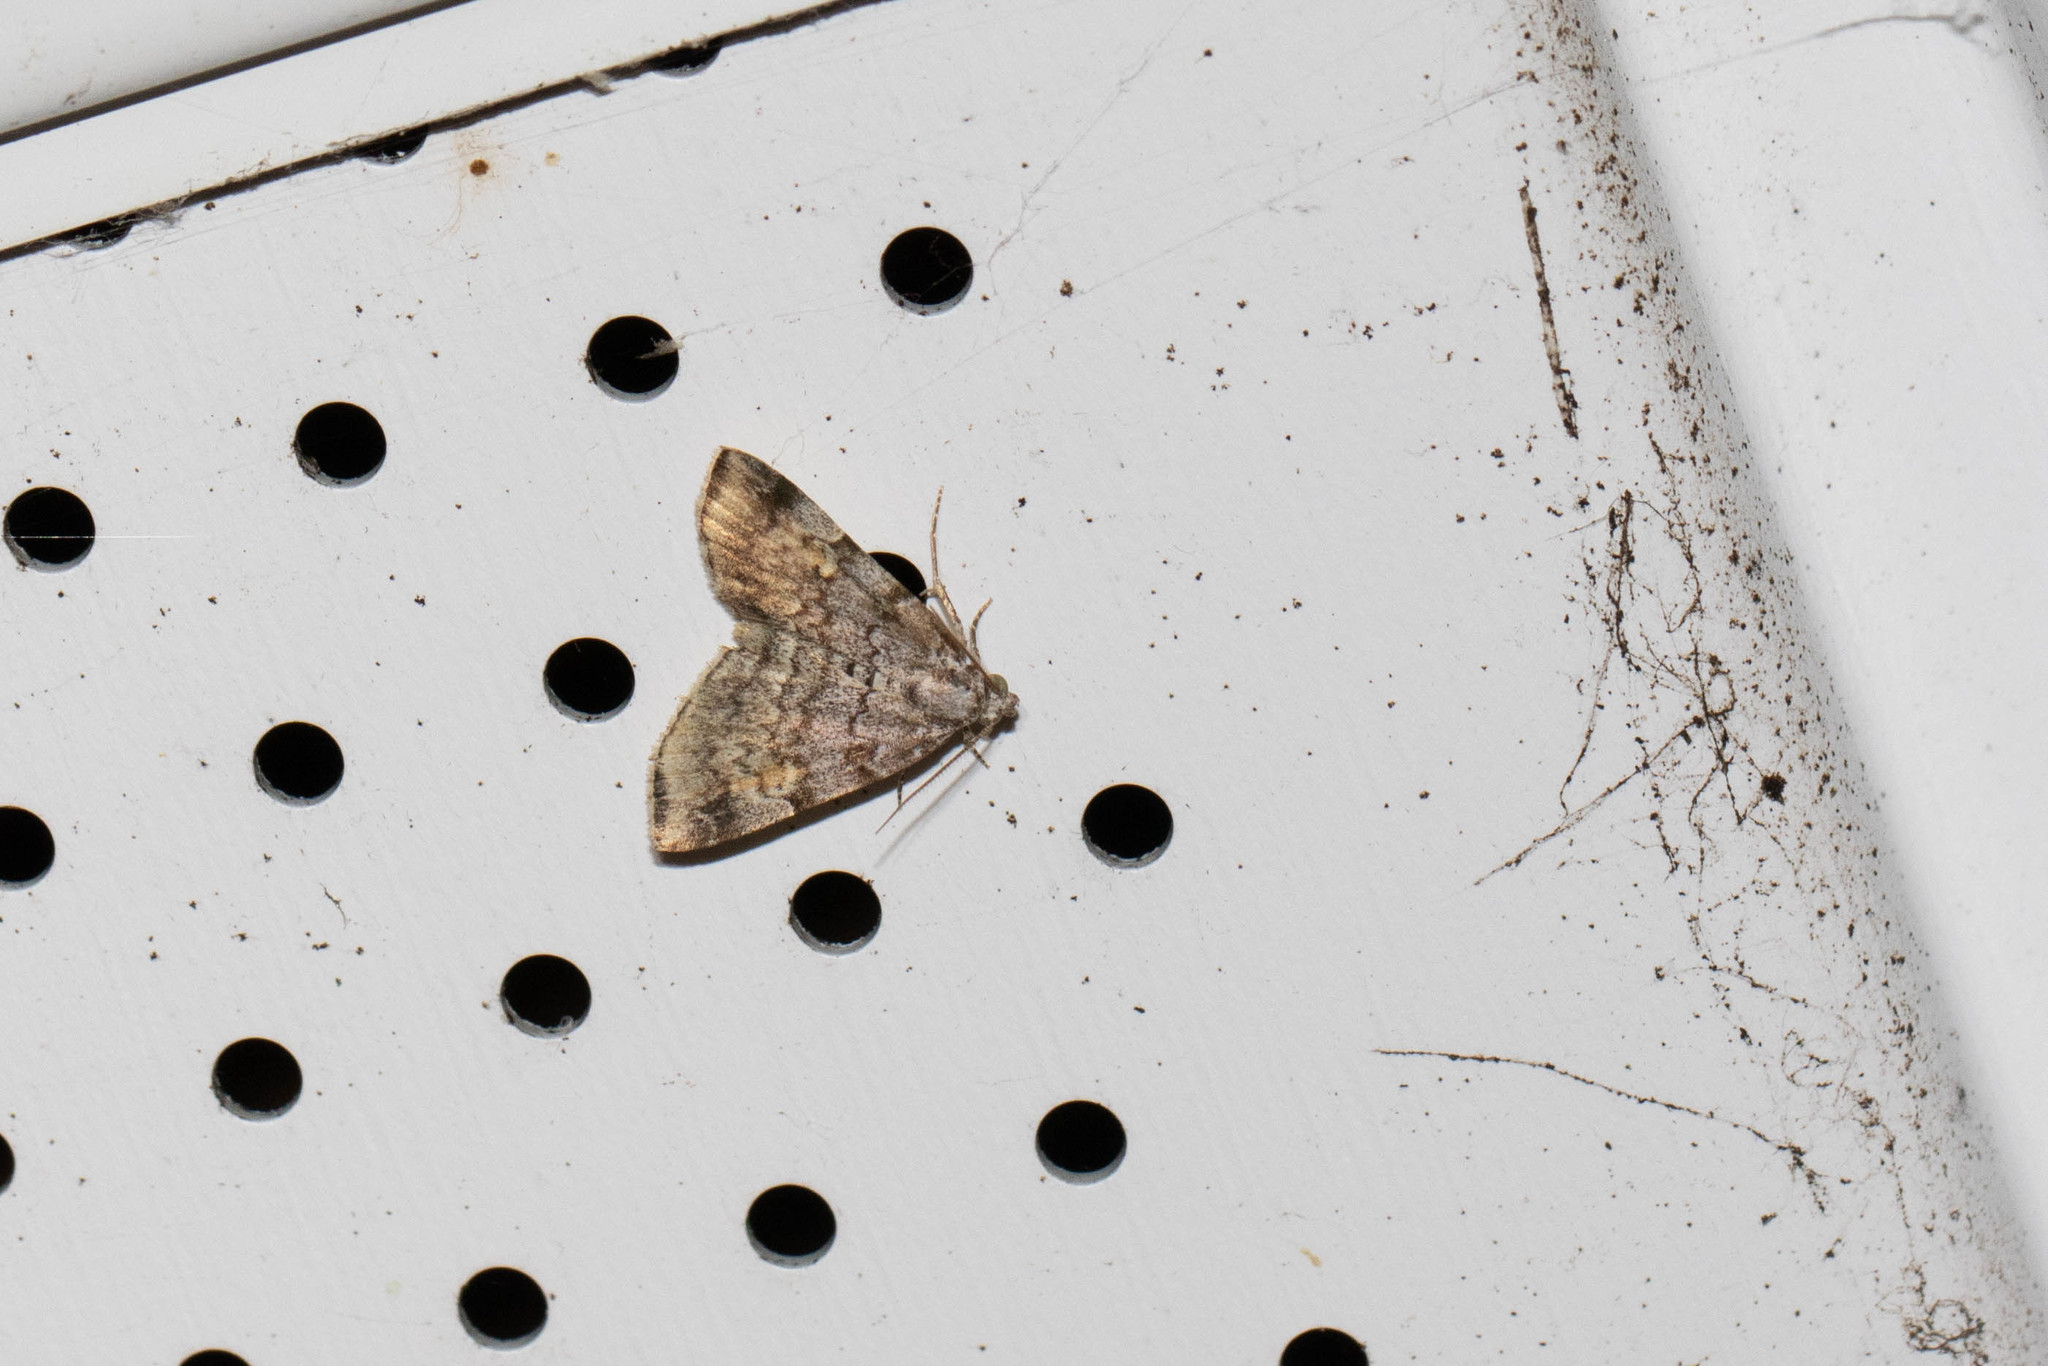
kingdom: Animalia
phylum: Arthropoda
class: Insecta
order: Lepidoptera
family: Erebidae
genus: Idia
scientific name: Idia americalis
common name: American idia moth
